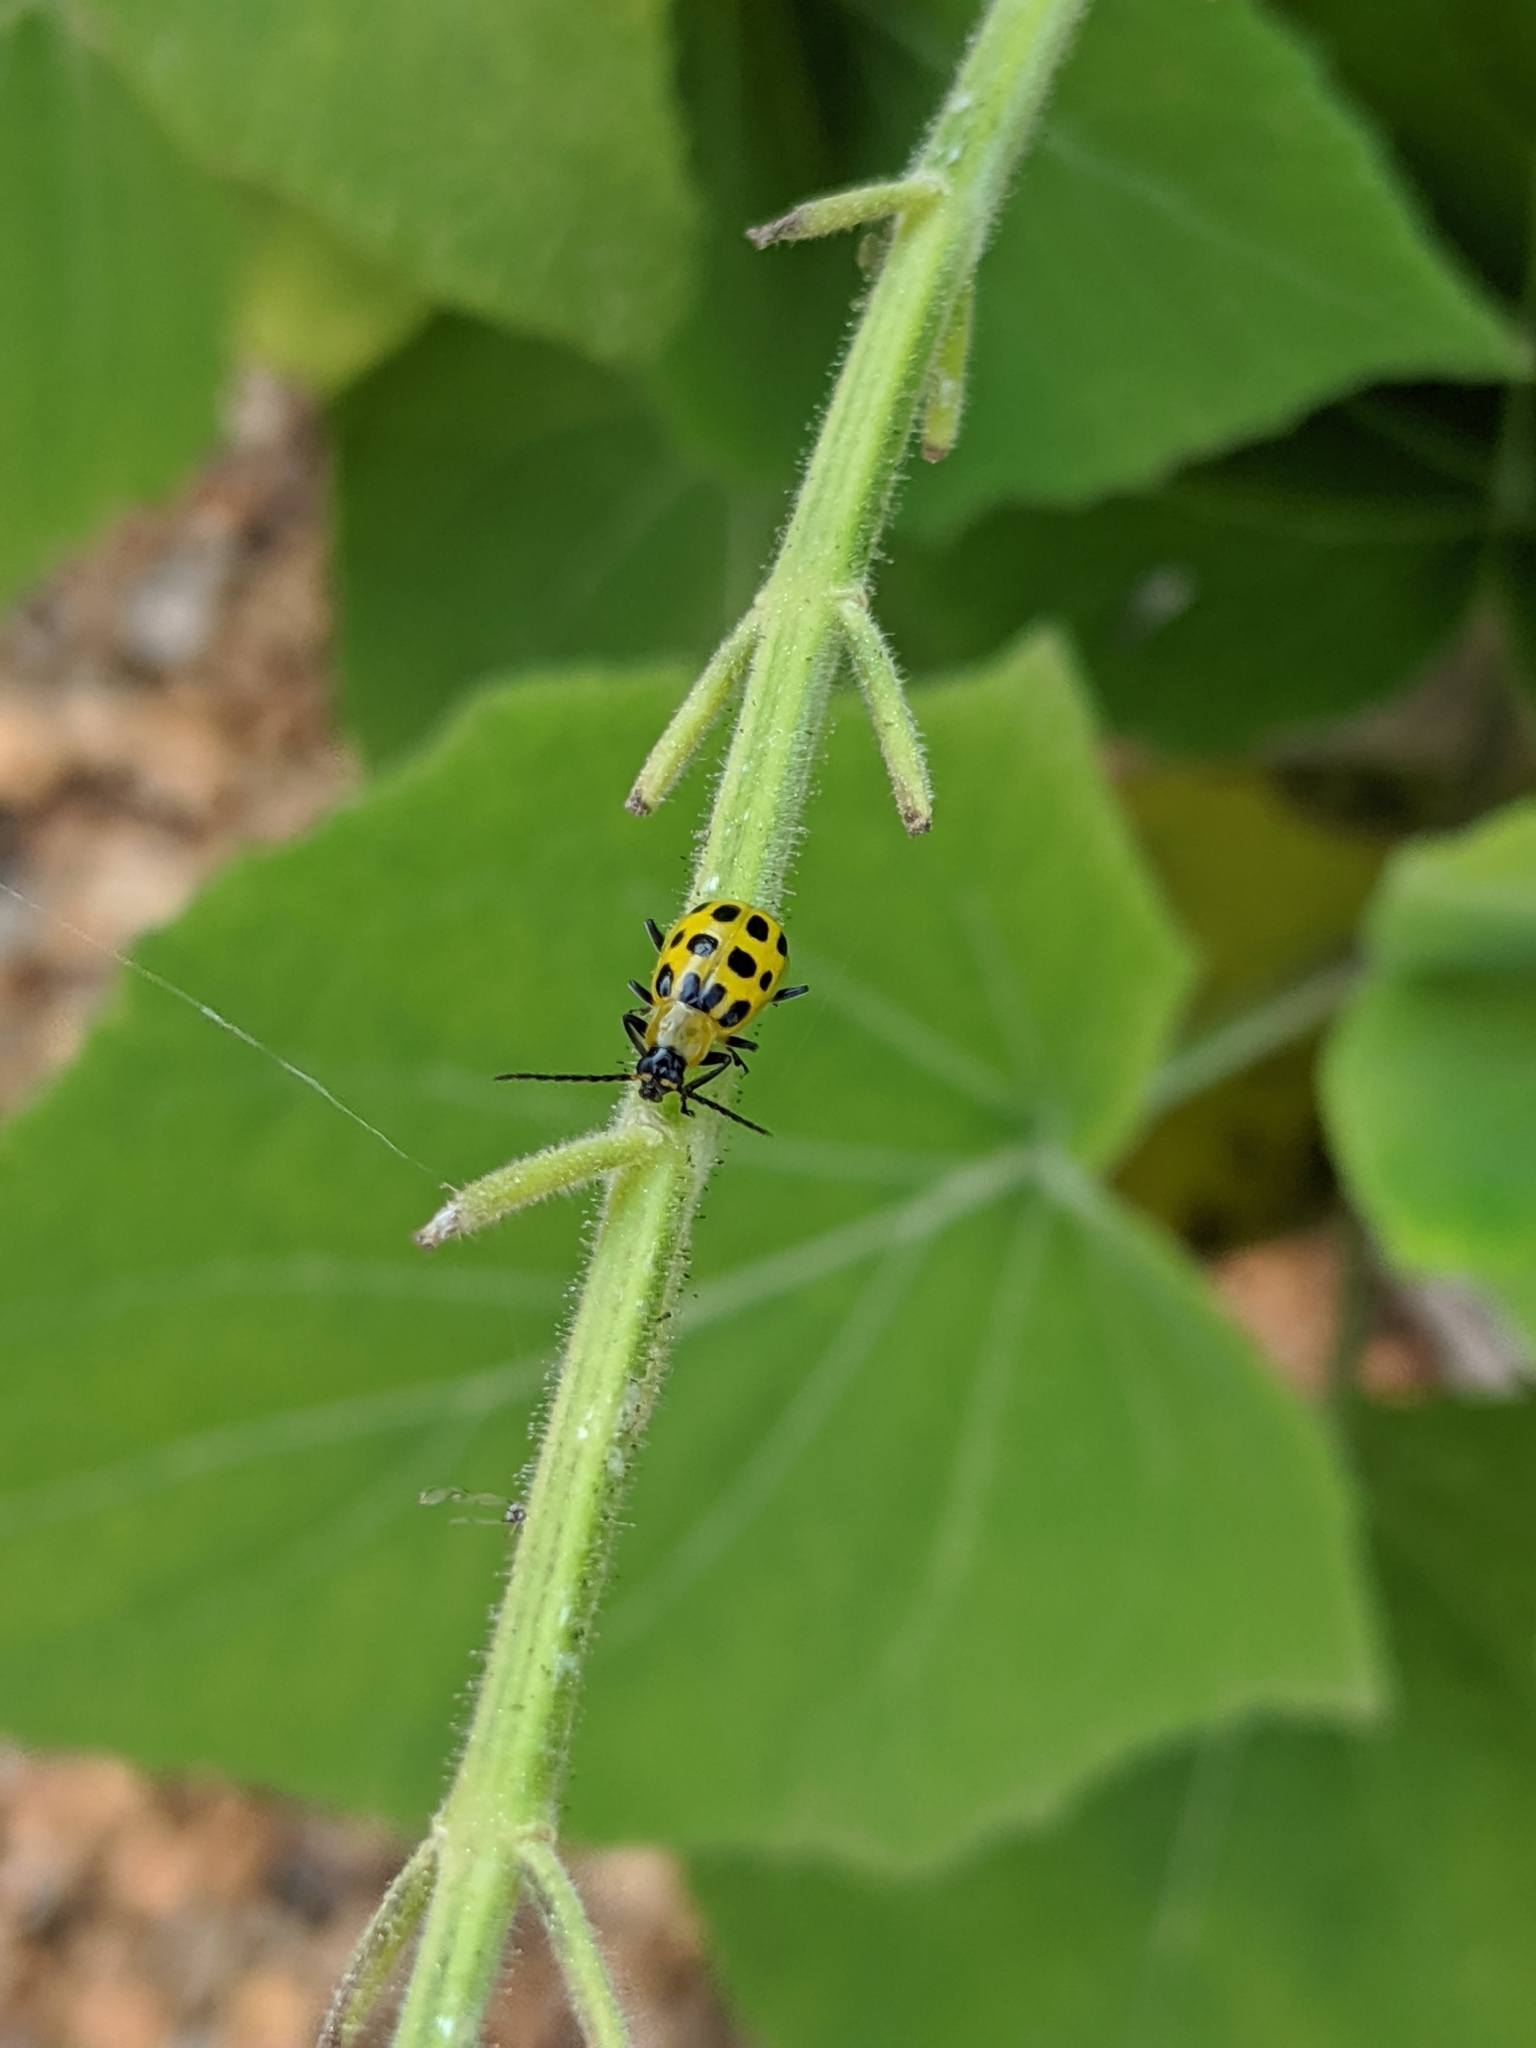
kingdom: Animalia
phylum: Arthropoda
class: Insecta
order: Coleoptera
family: Chrysomelidae
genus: Diabrotica
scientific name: Diabrotica undecimpunctata
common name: Spotted cucumber beetle
